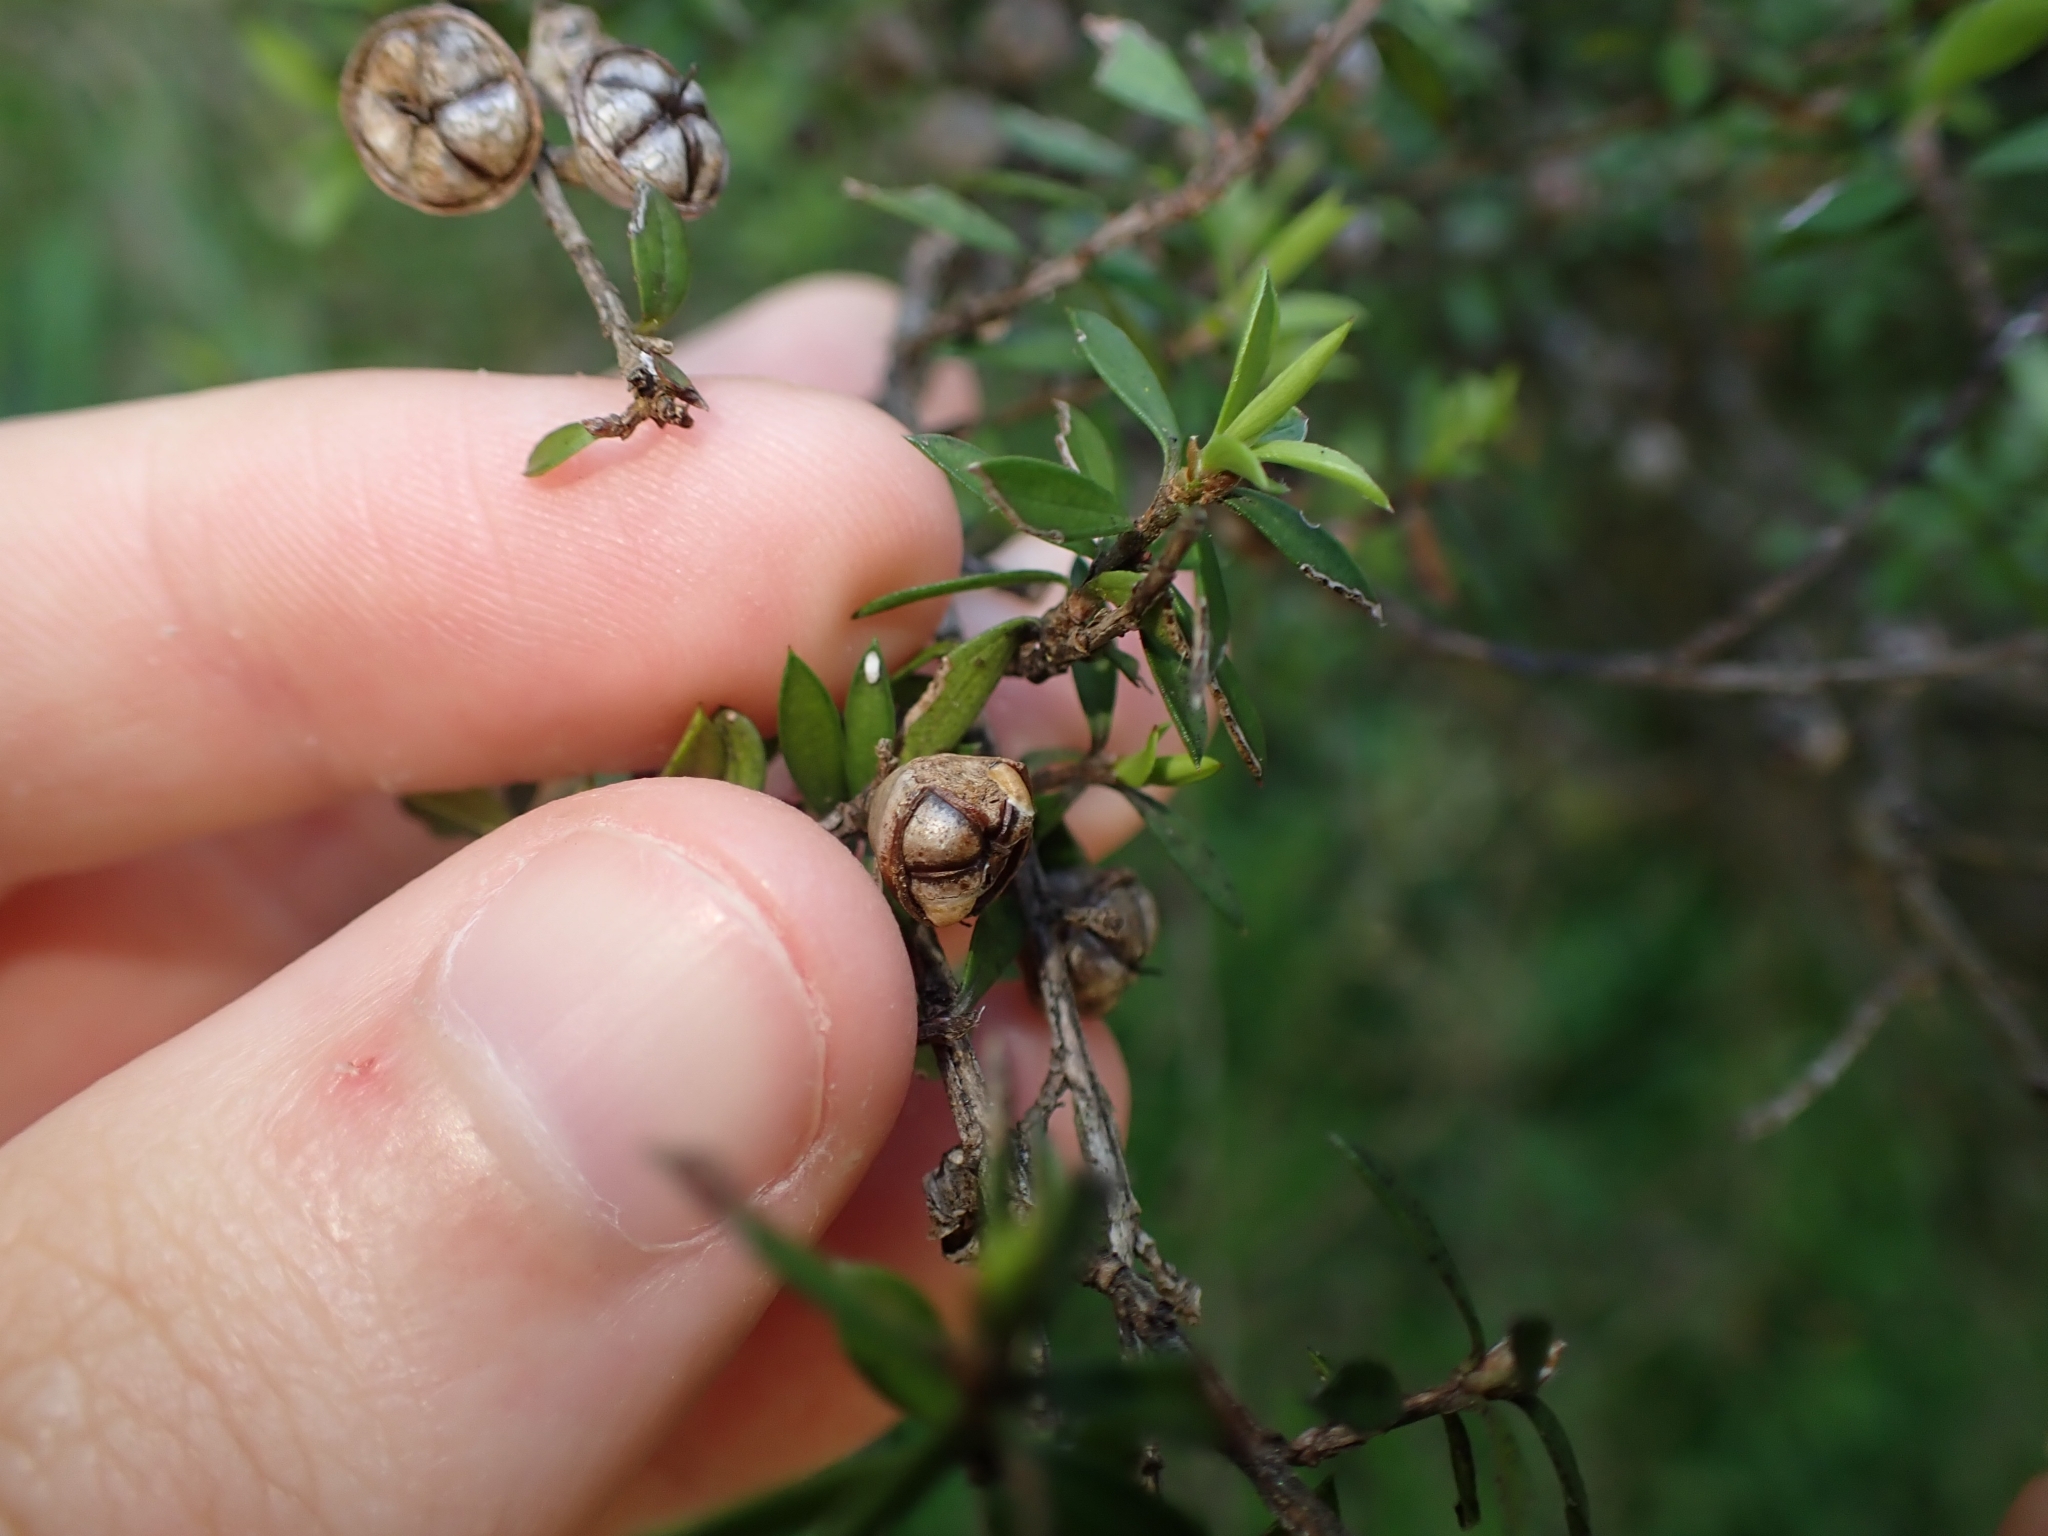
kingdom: Plantae
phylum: Tracheophyta
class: Magnoliopsida
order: Myrtales
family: Myrtaceae
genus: Leptospermum
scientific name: Leptospermum scoparium
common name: Broom tea-tree
